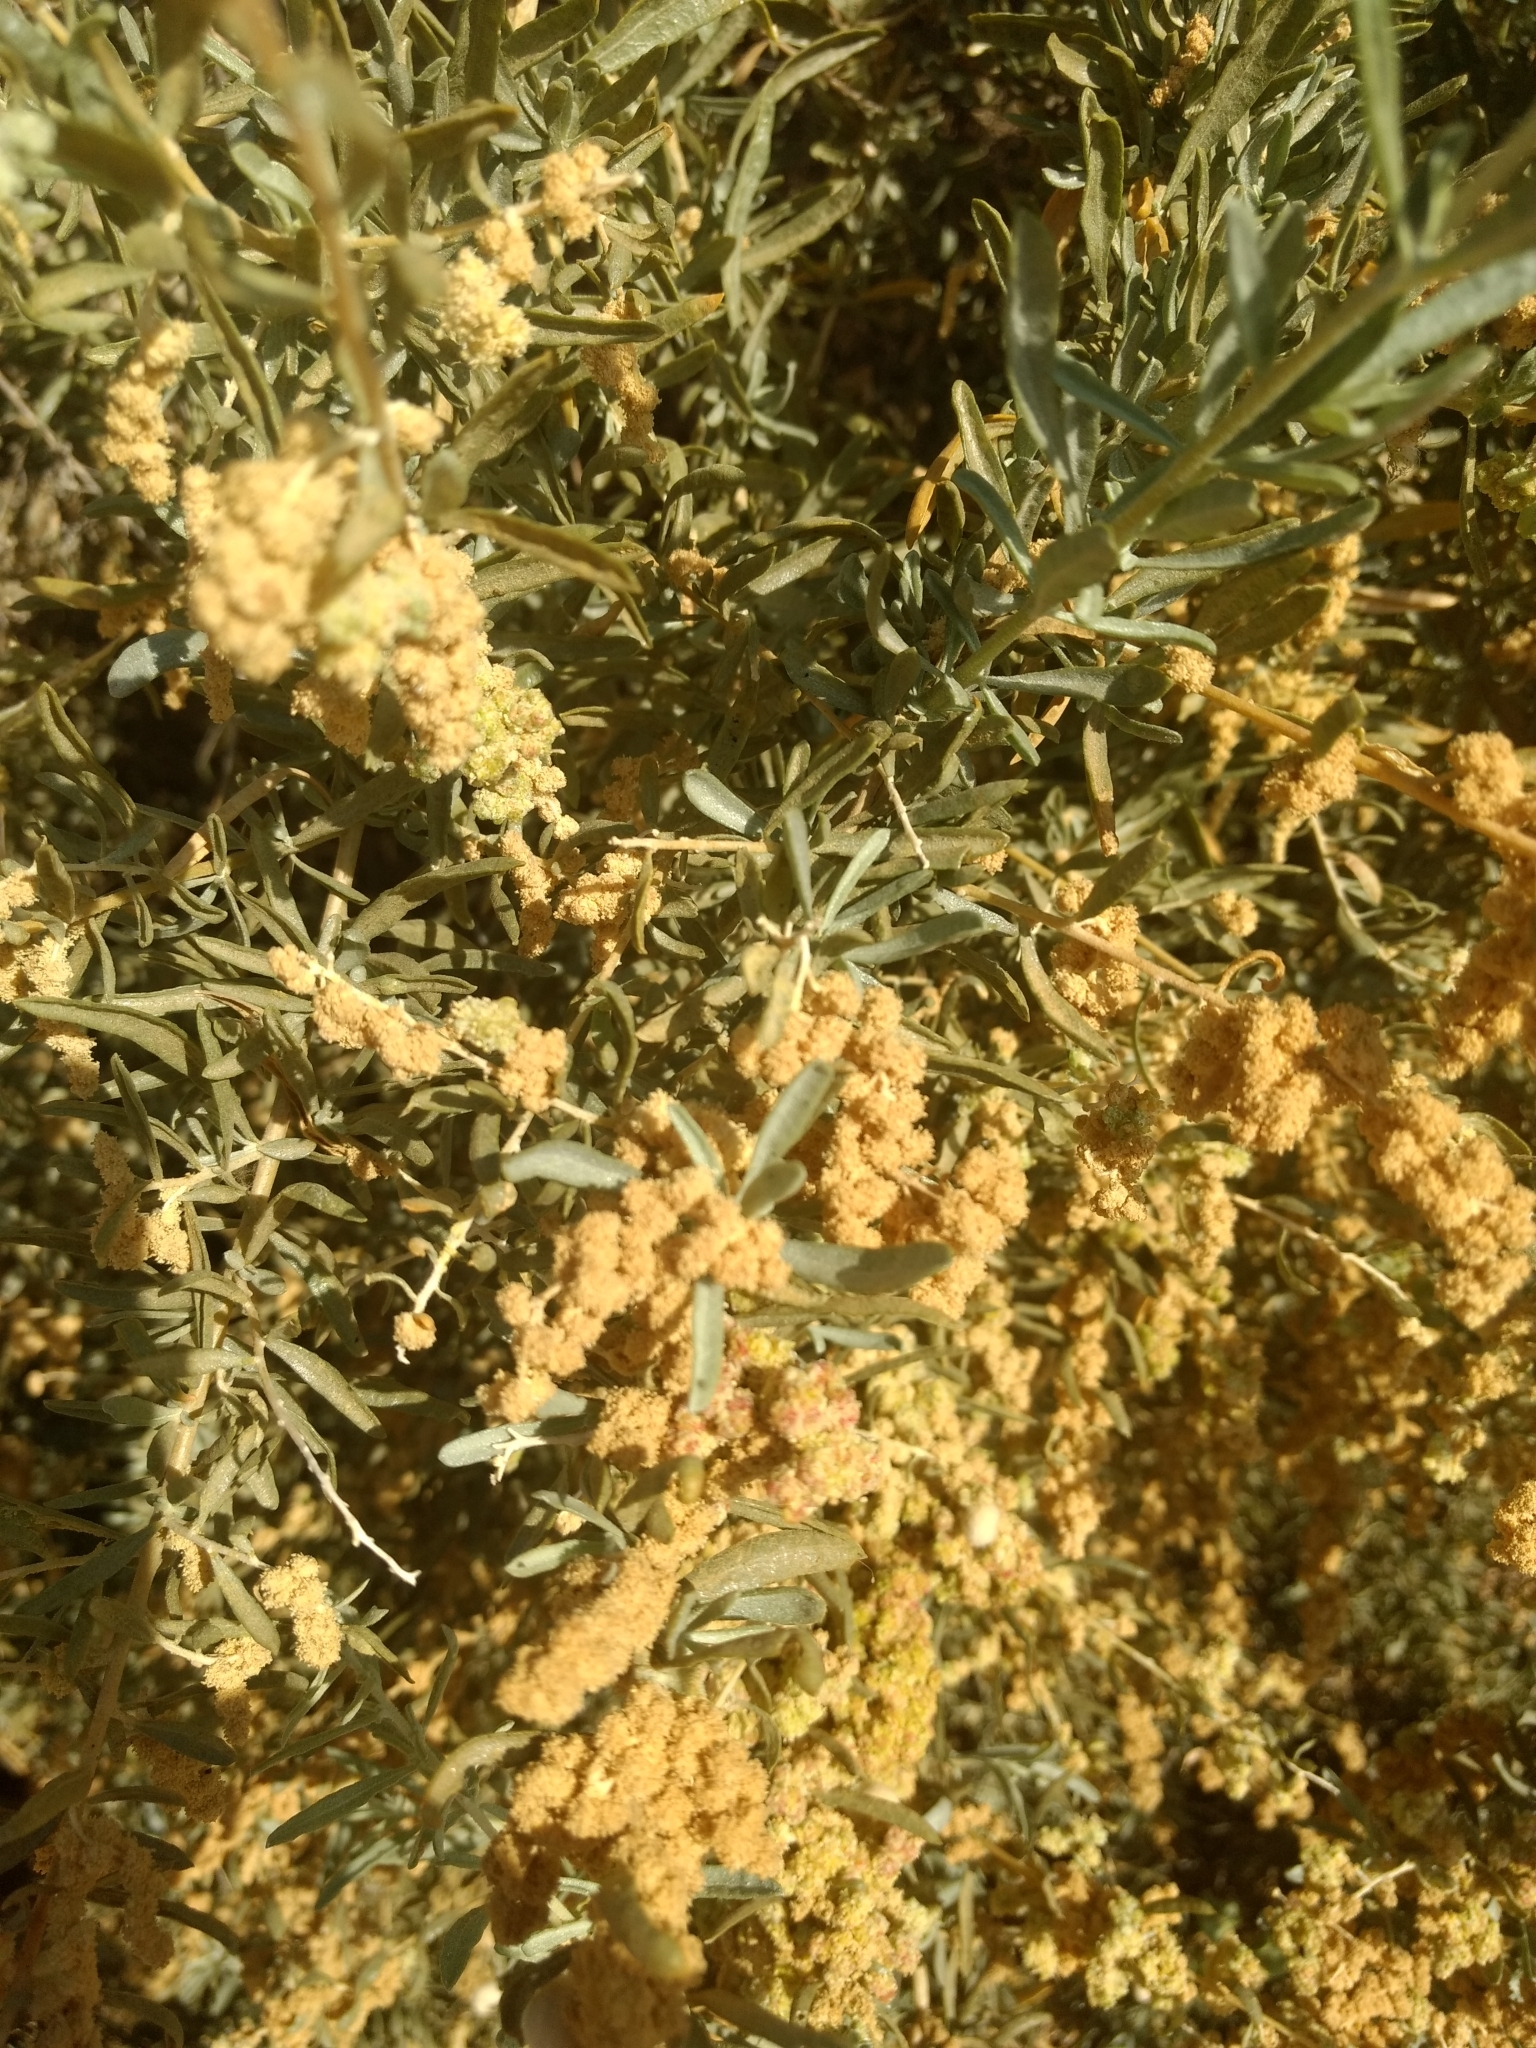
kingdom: Plantae
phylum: Tracheophyta
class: Magnoliopsida
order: Caryophyllales
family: Amaranthaceae
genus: Atriplex
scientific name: Atriplex canescens
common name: Four-wing saltbush
